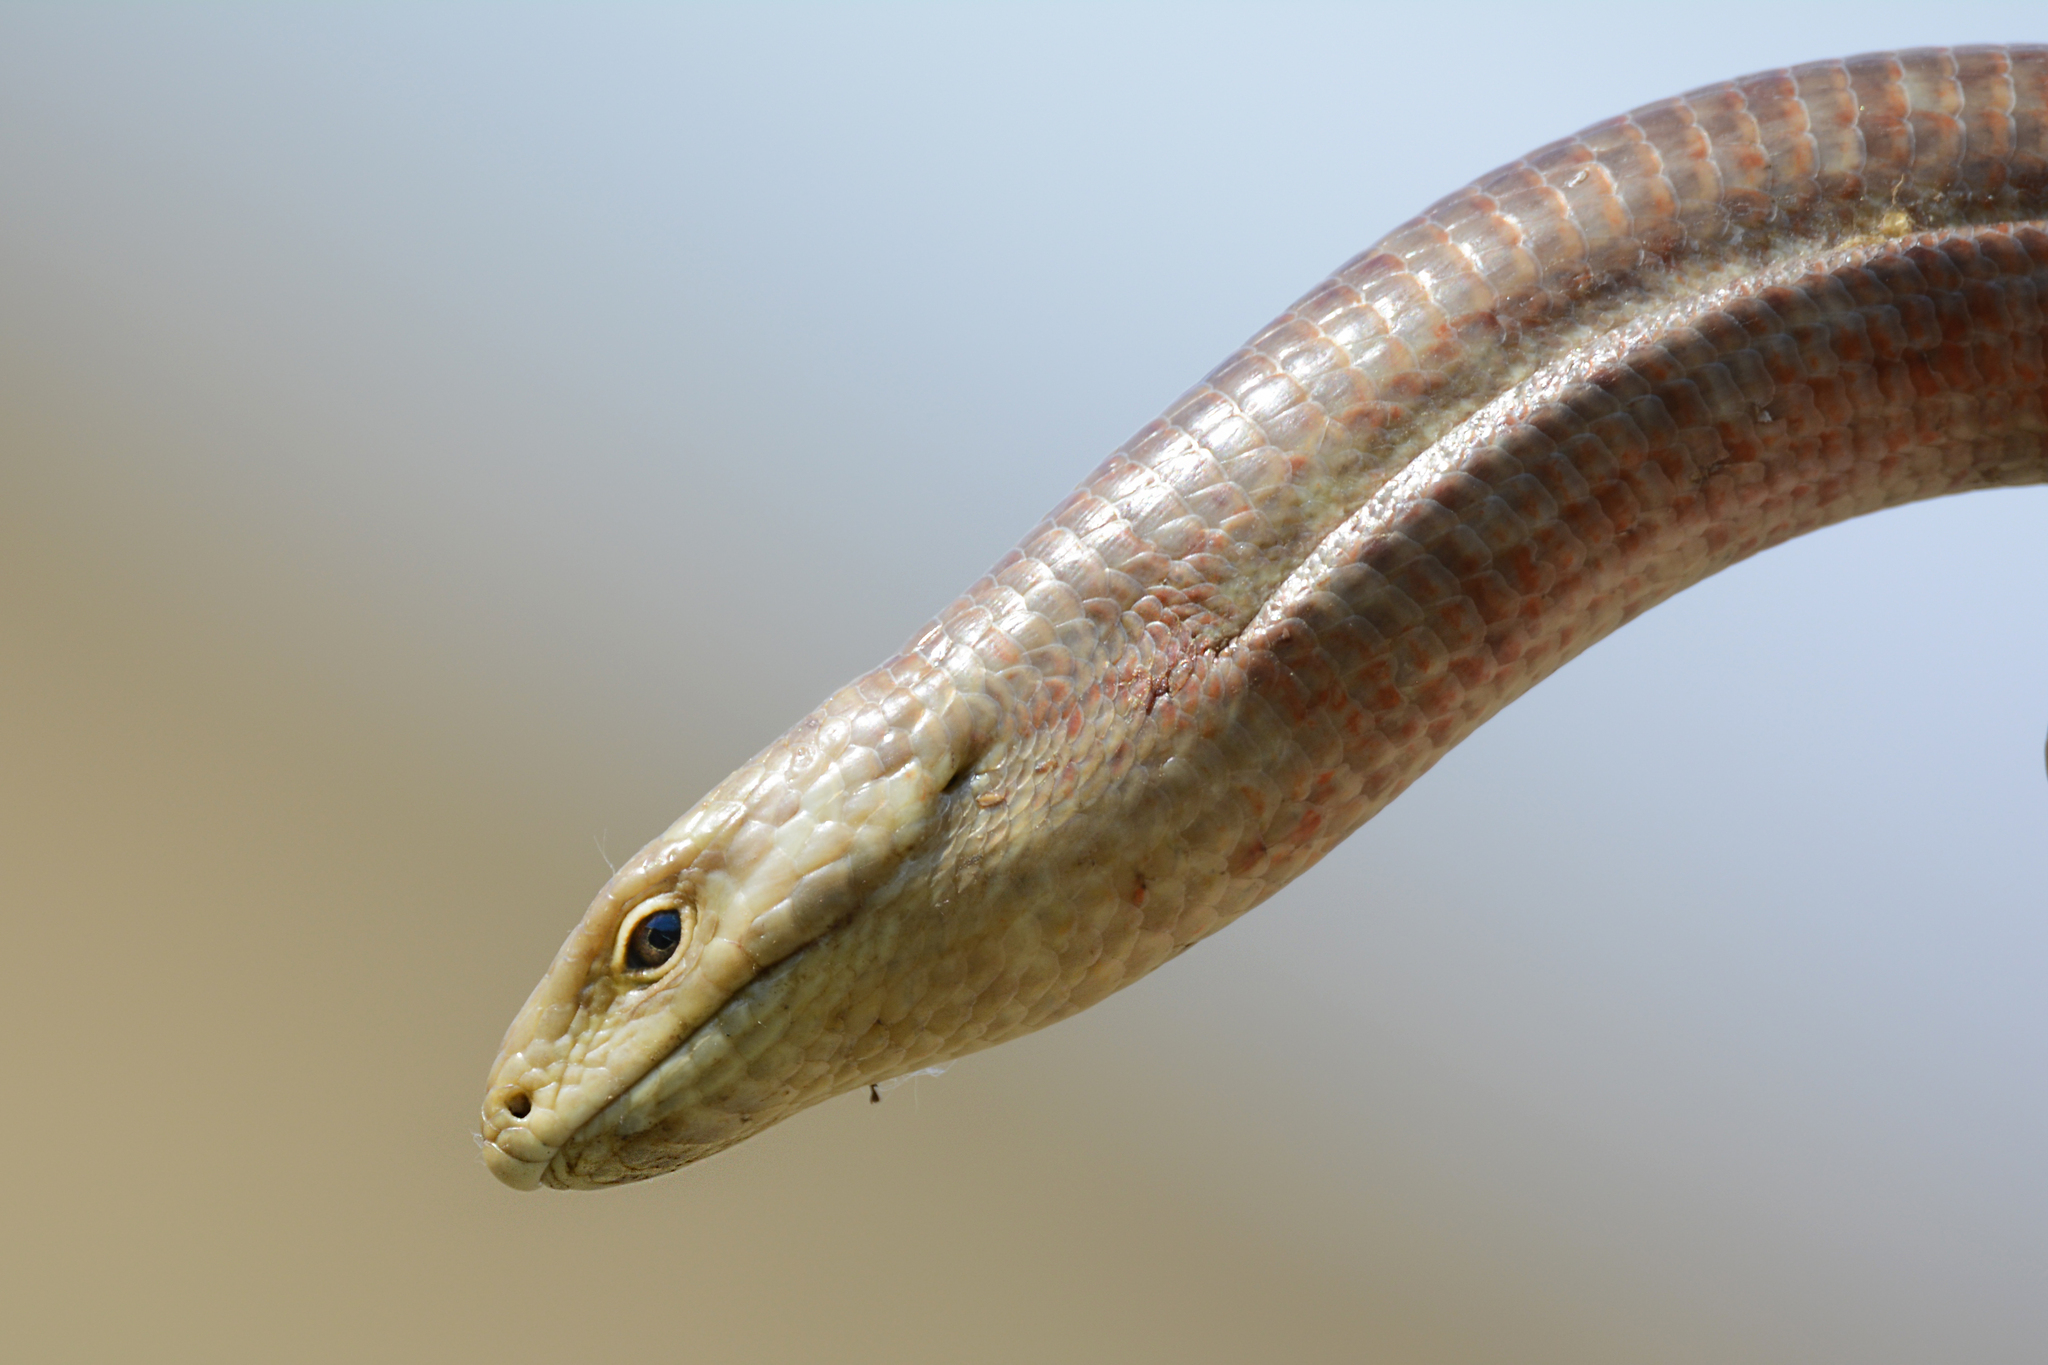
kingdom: Animalia
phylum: Chordata
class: Squamata
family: Anguidae
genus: Pseudopus
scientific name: Pseudopus apodus
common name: European glass lizard
